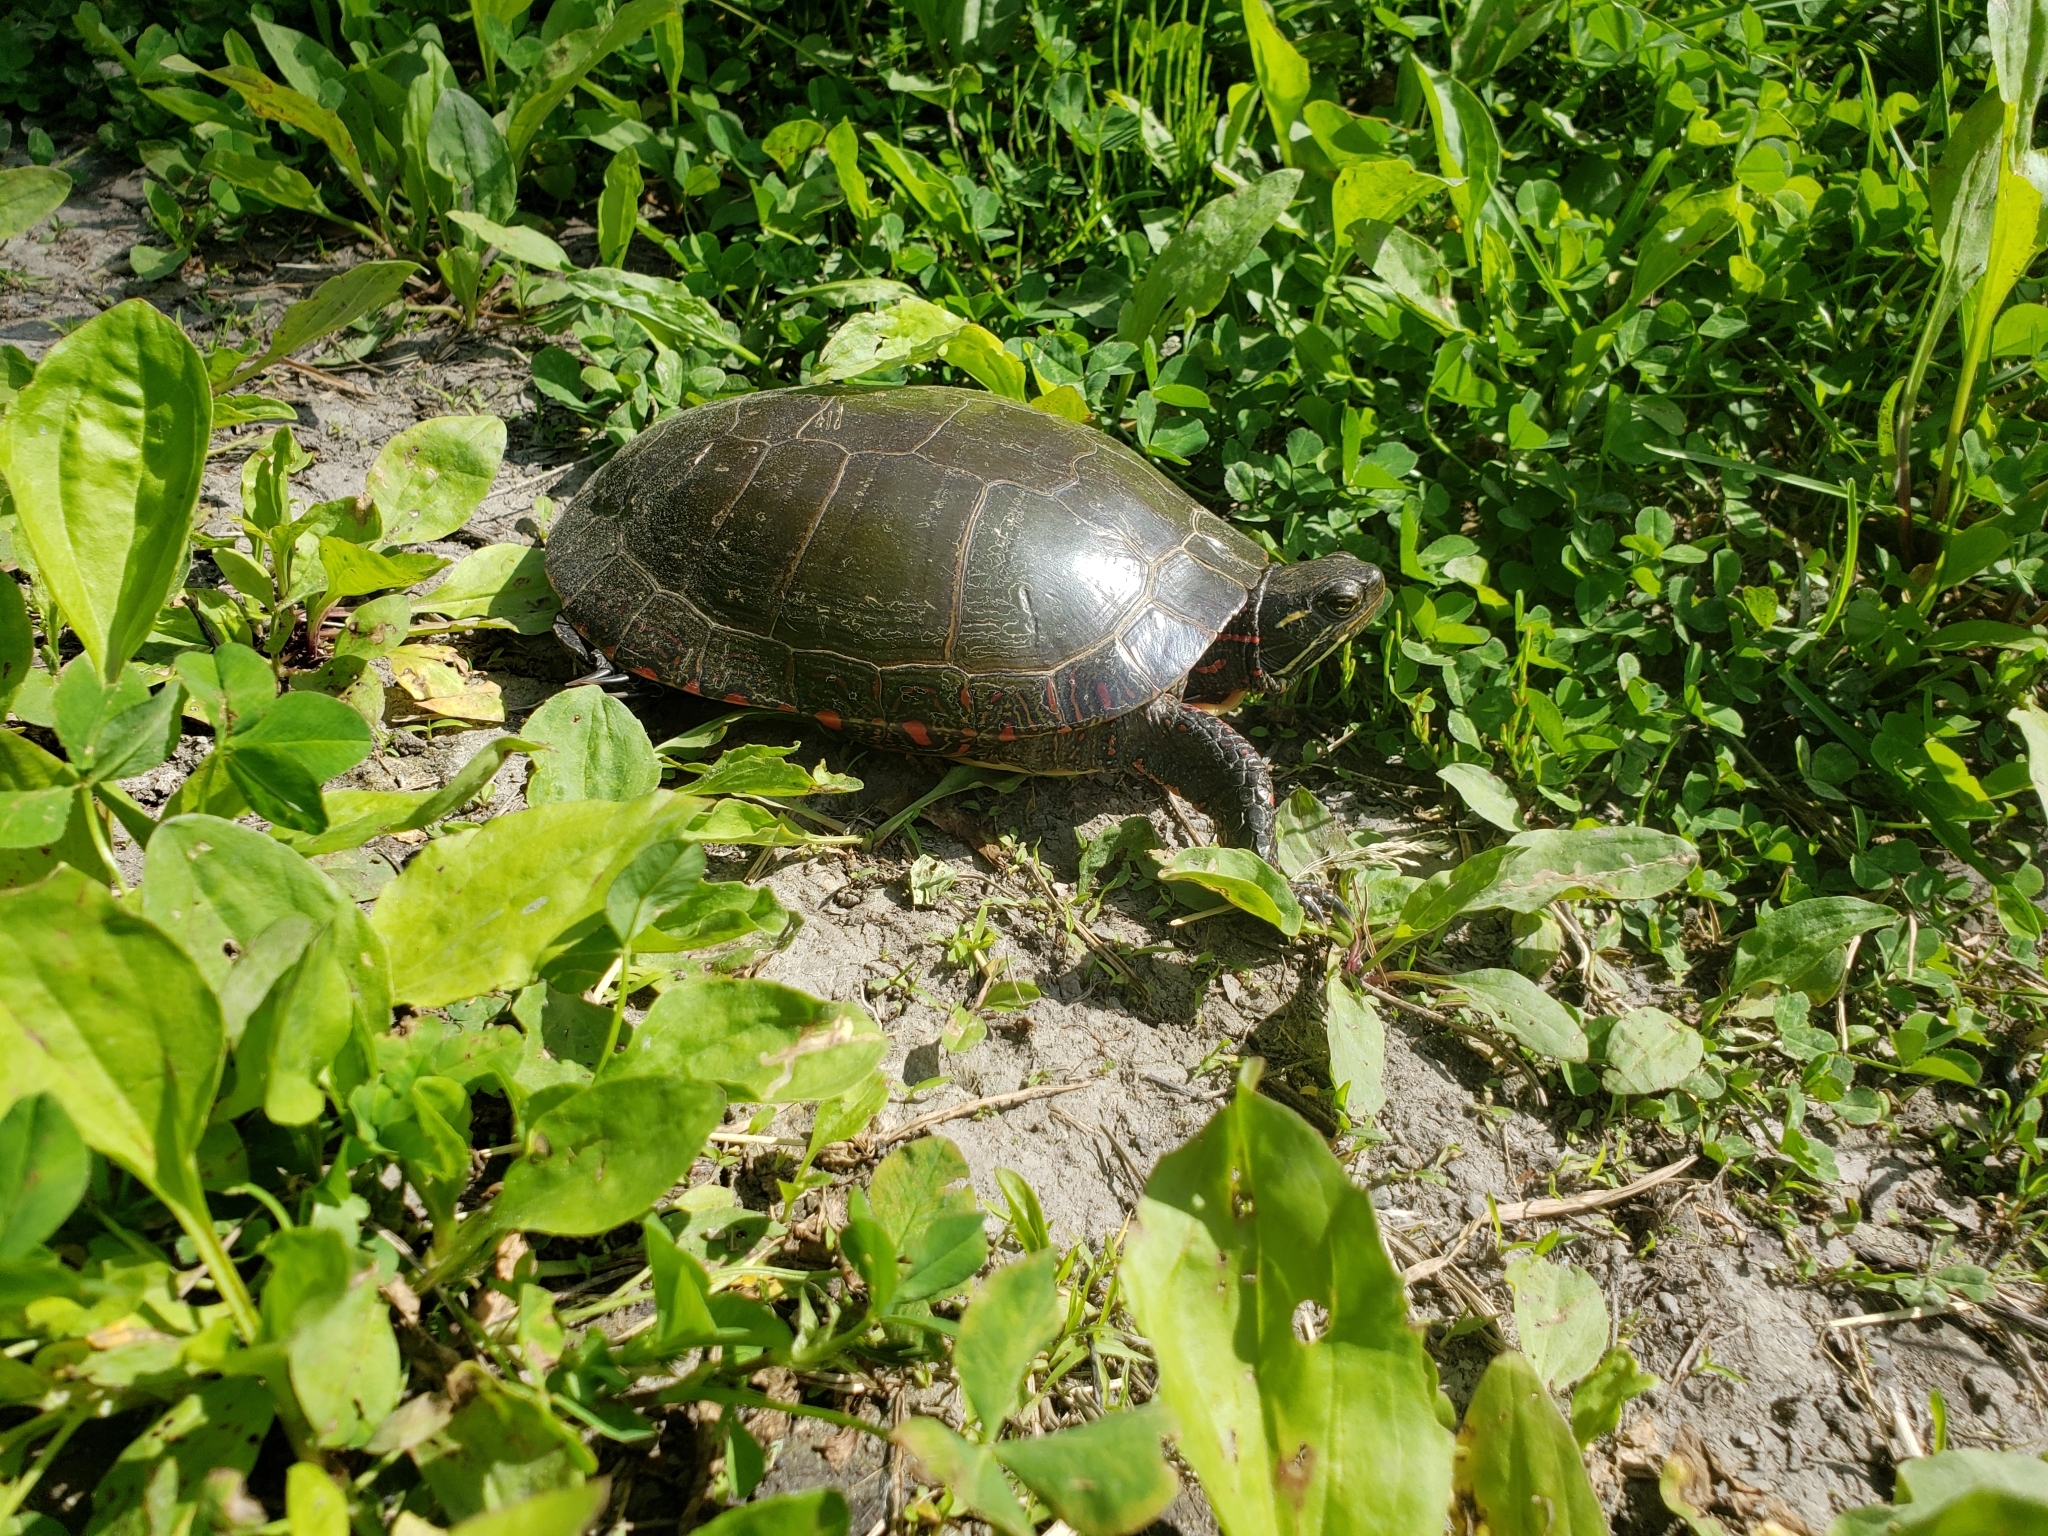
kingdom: Animalia
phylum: Chordata
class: Testudines
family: Emydidae
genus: Chrysemys
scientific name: Chrysemys picta
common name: Painted turtle
